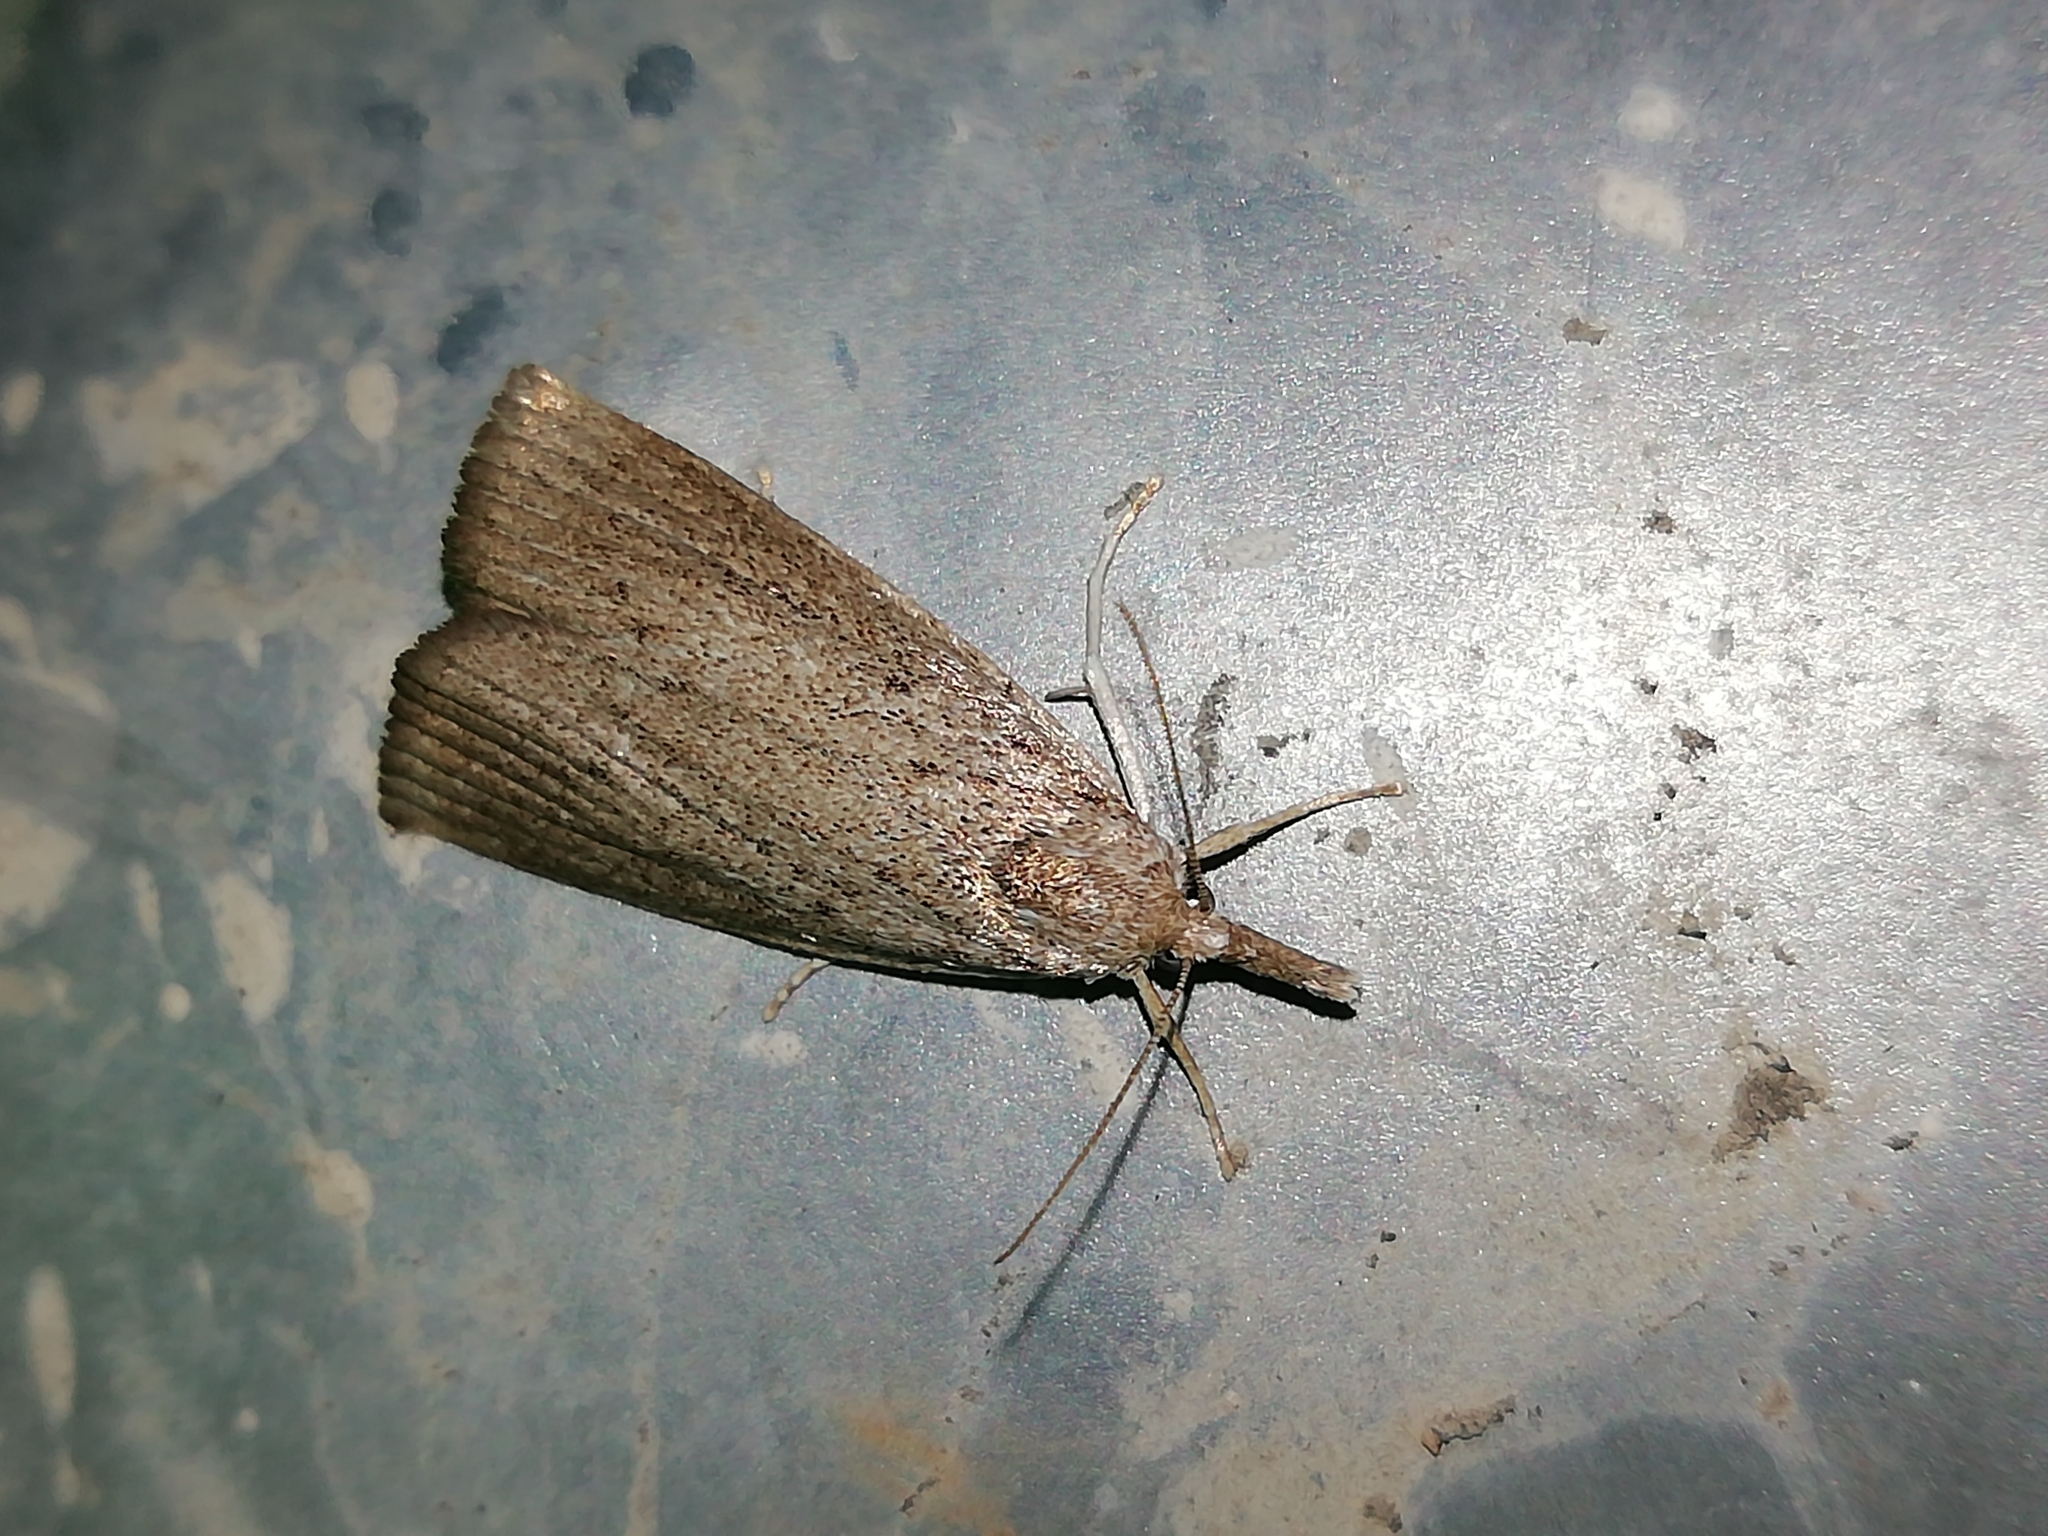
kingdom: Animalia
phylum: Arthropoda
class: Insecta
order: Lepidoptera
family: Crambidae
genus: Calamotropha
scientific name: Calamotropha paludella
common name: Bulrush veneer
